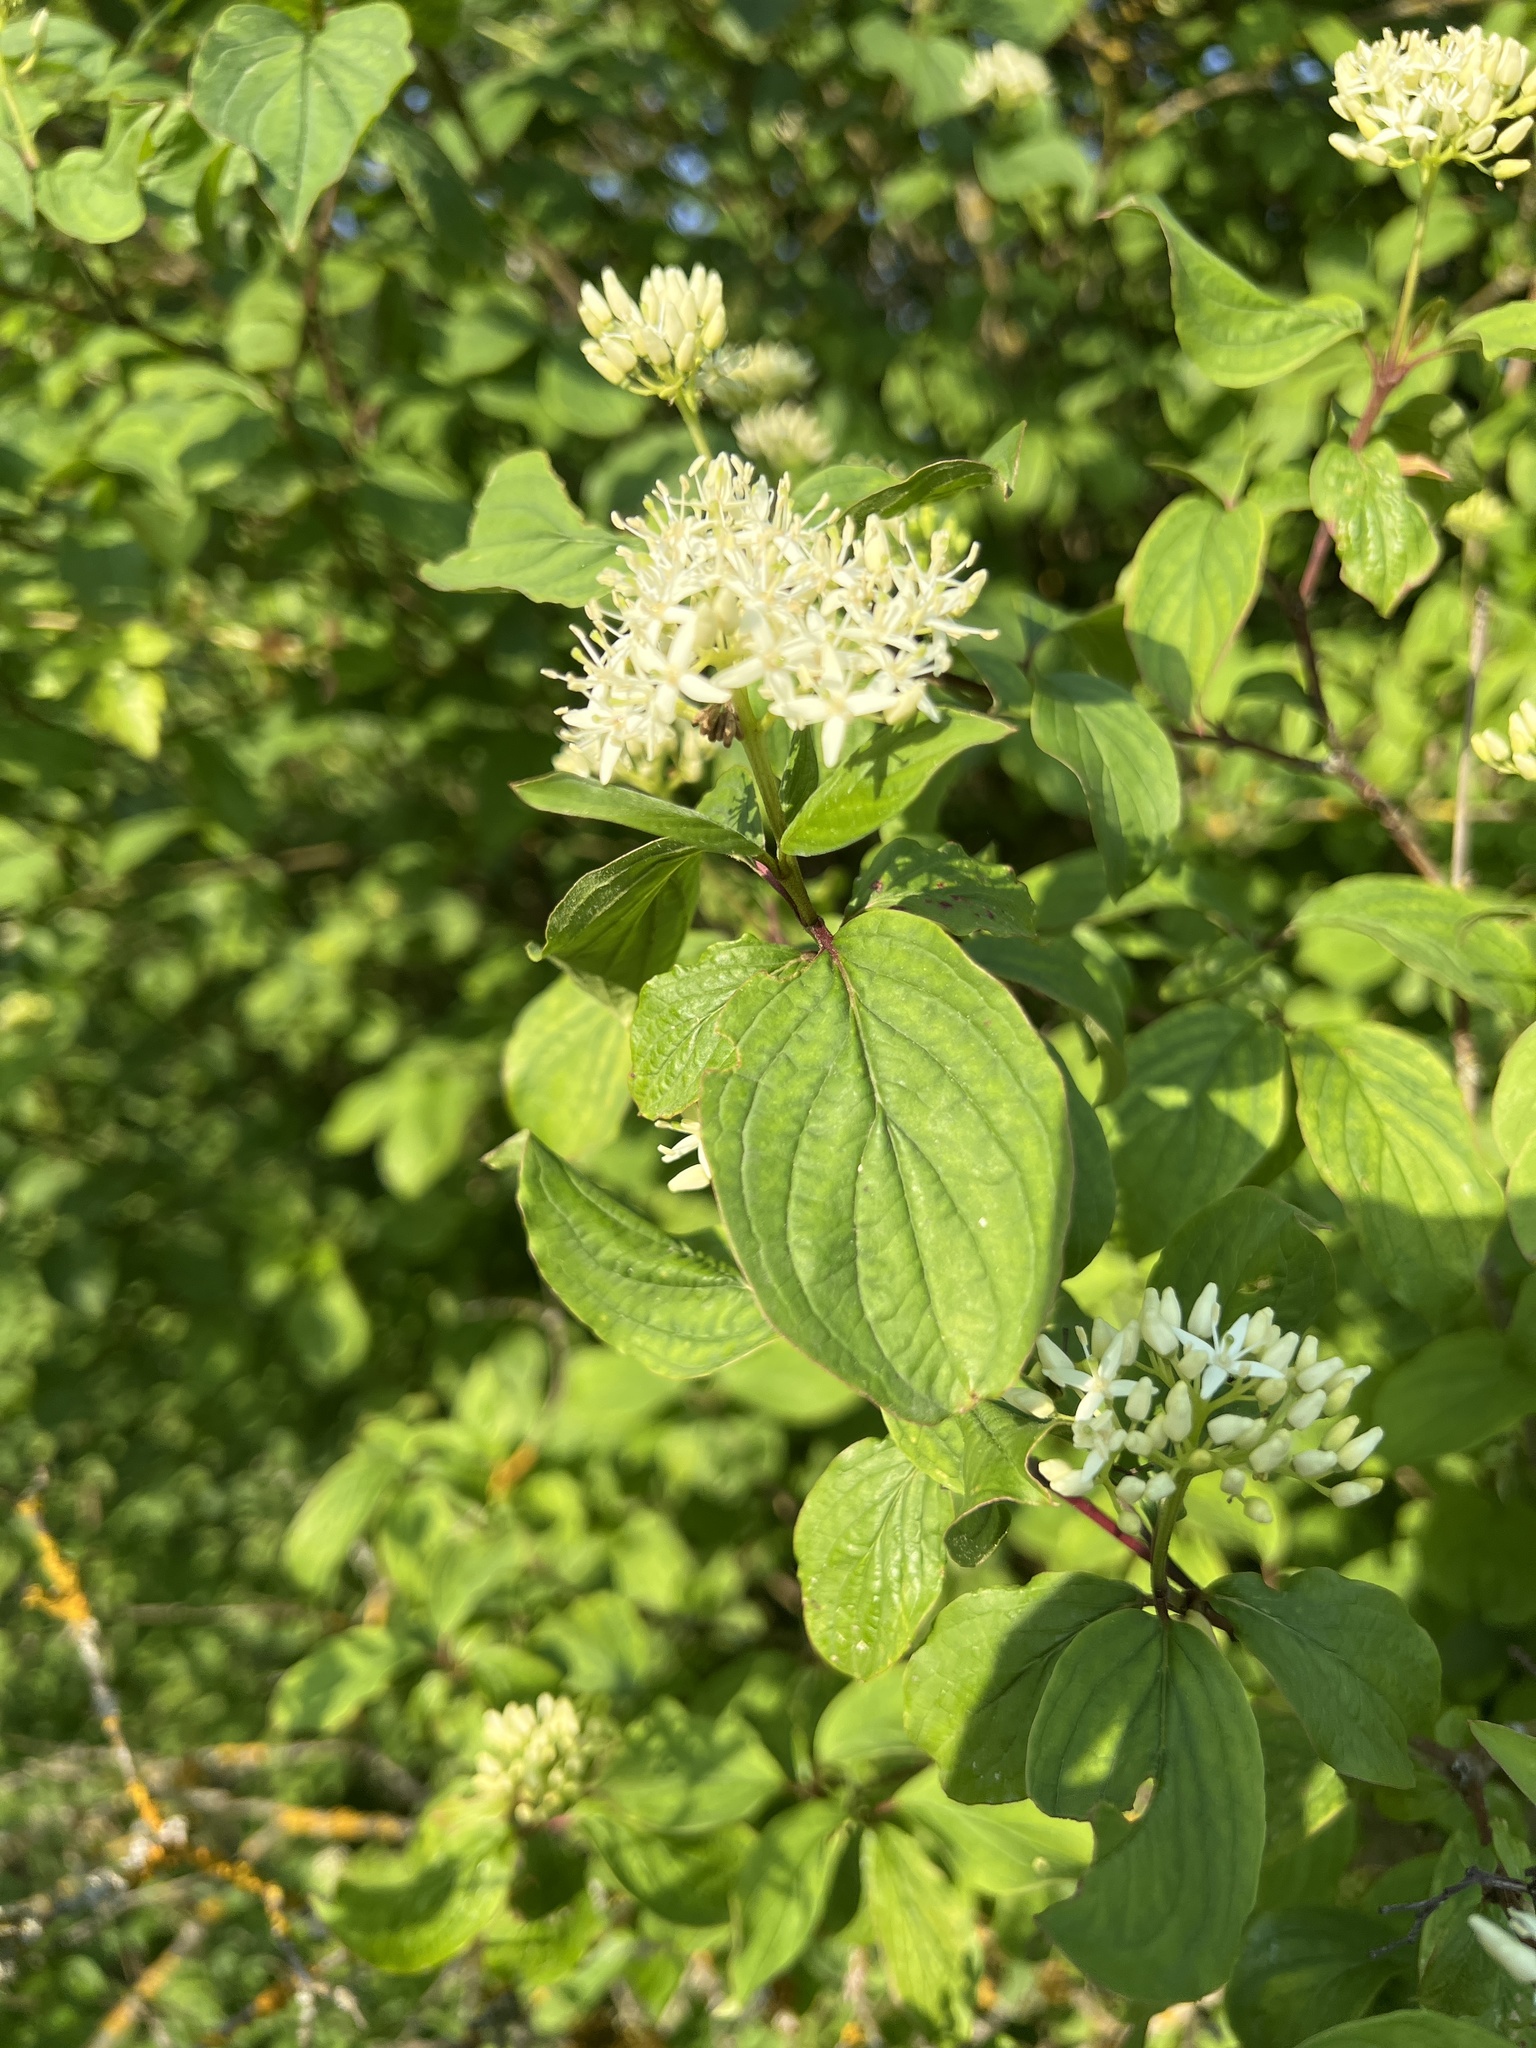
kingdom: Plantae
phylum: Tracheophyta
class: Magnoliopsida
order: Cornales
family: Cornaceae
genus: Cornus
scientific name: Cornus sanguinea
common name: Dogwood
